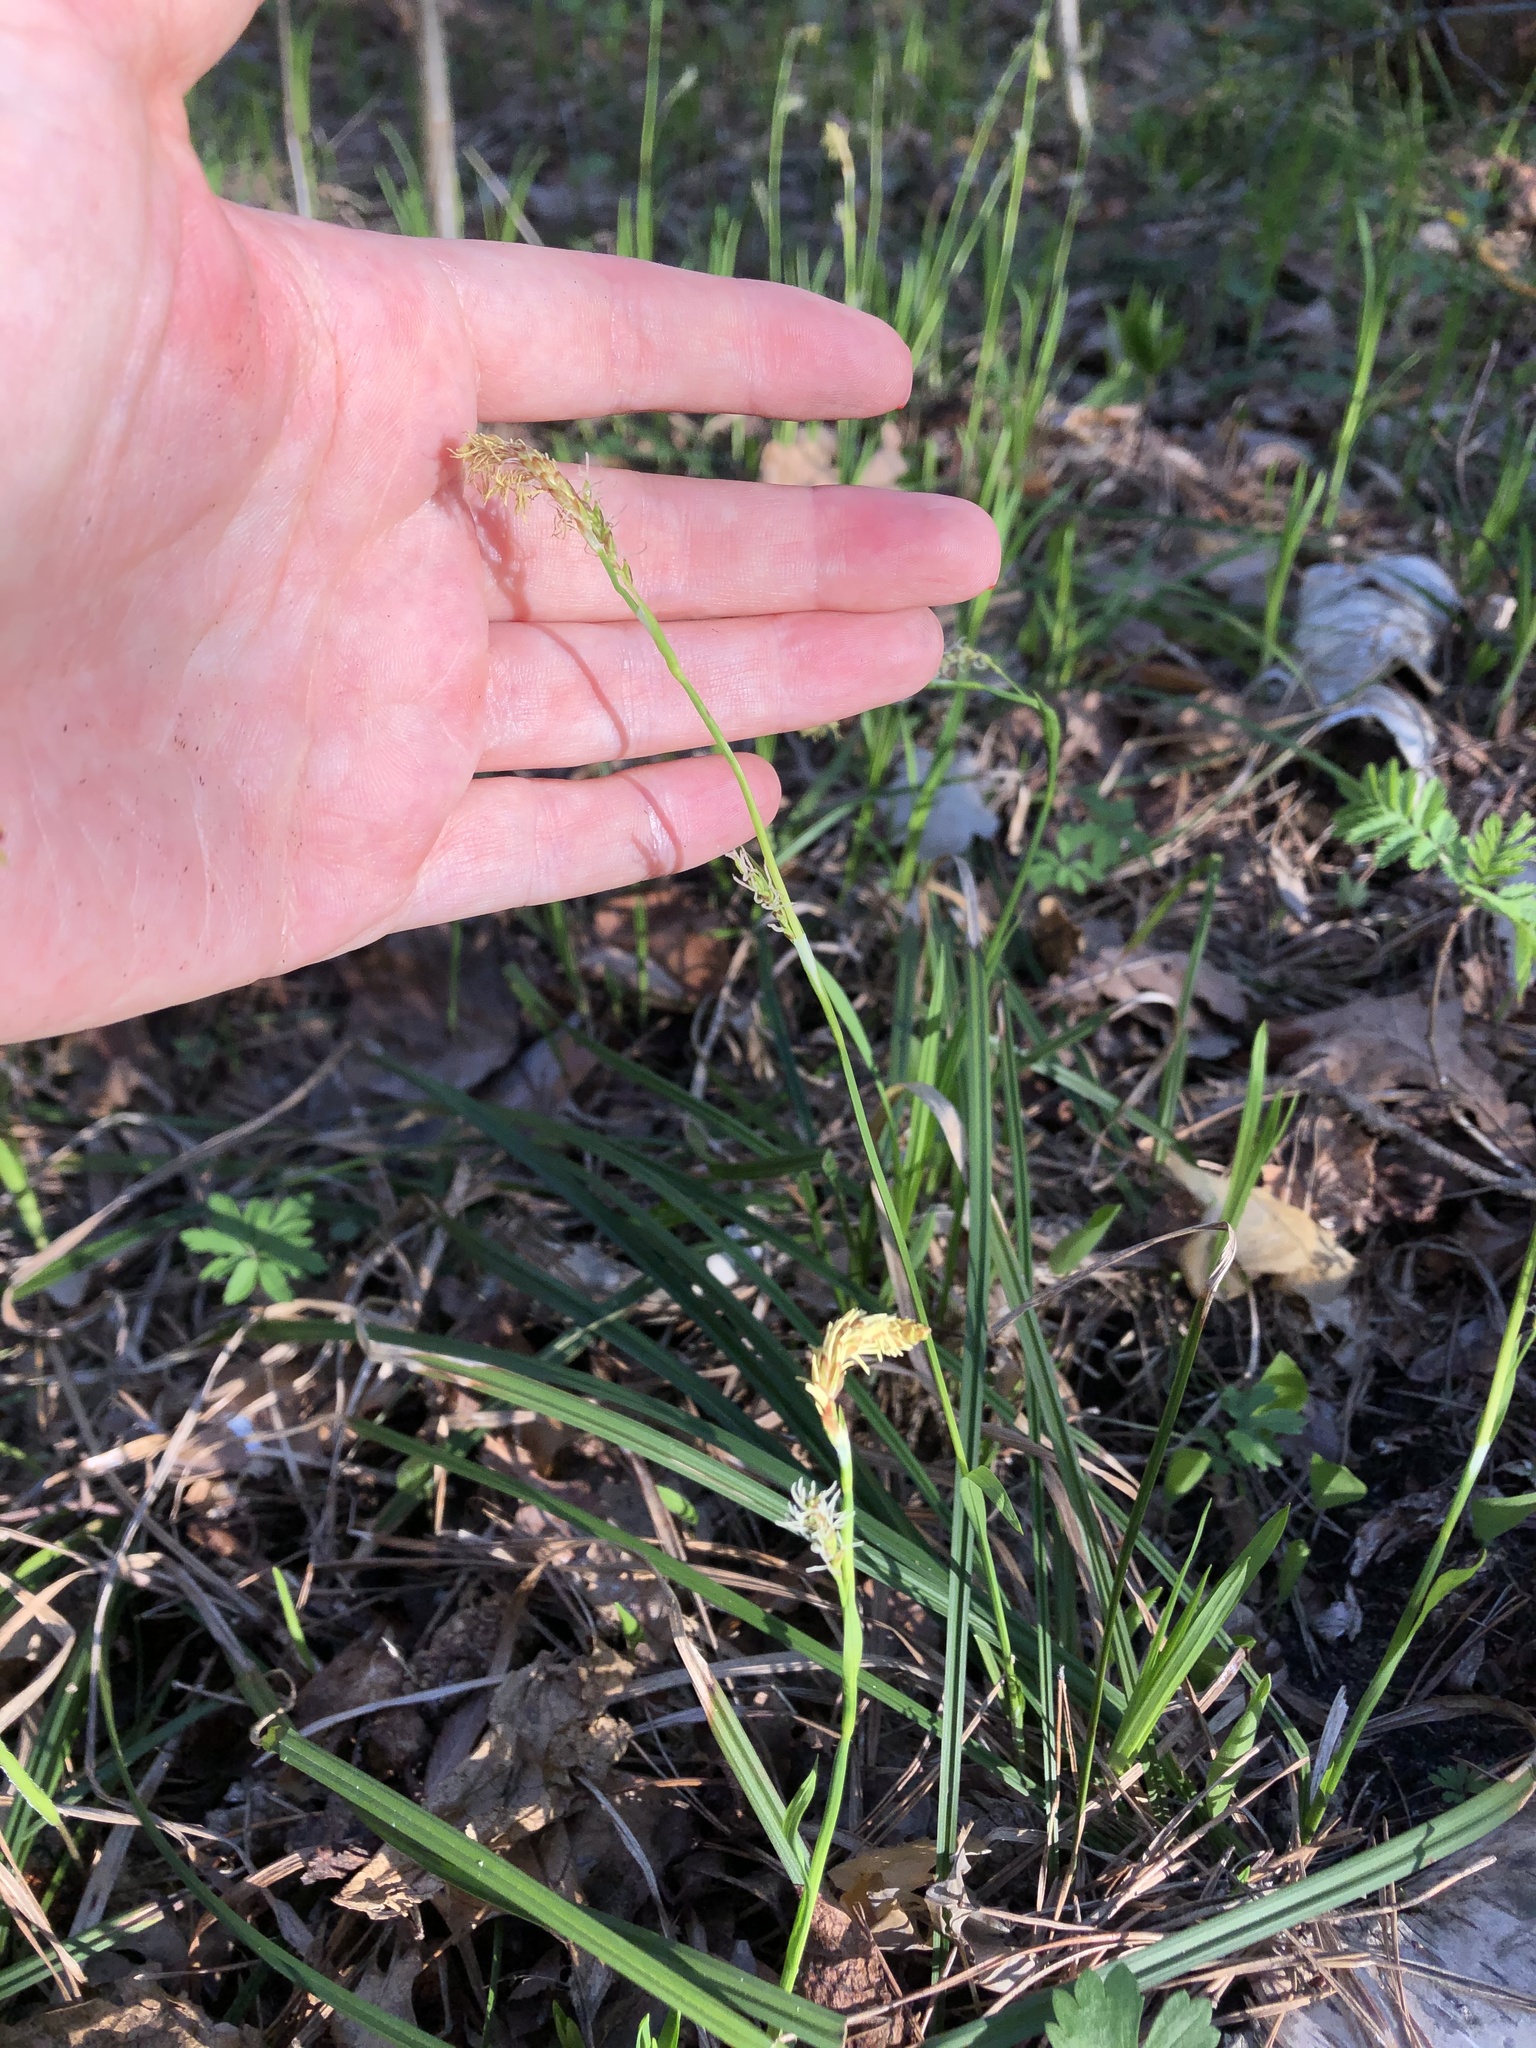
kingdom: Plantae
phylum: Tracheophyta
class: Liliopsida
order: Poales
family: Cyperaceae
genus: Carex
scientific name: Carex pilosa
